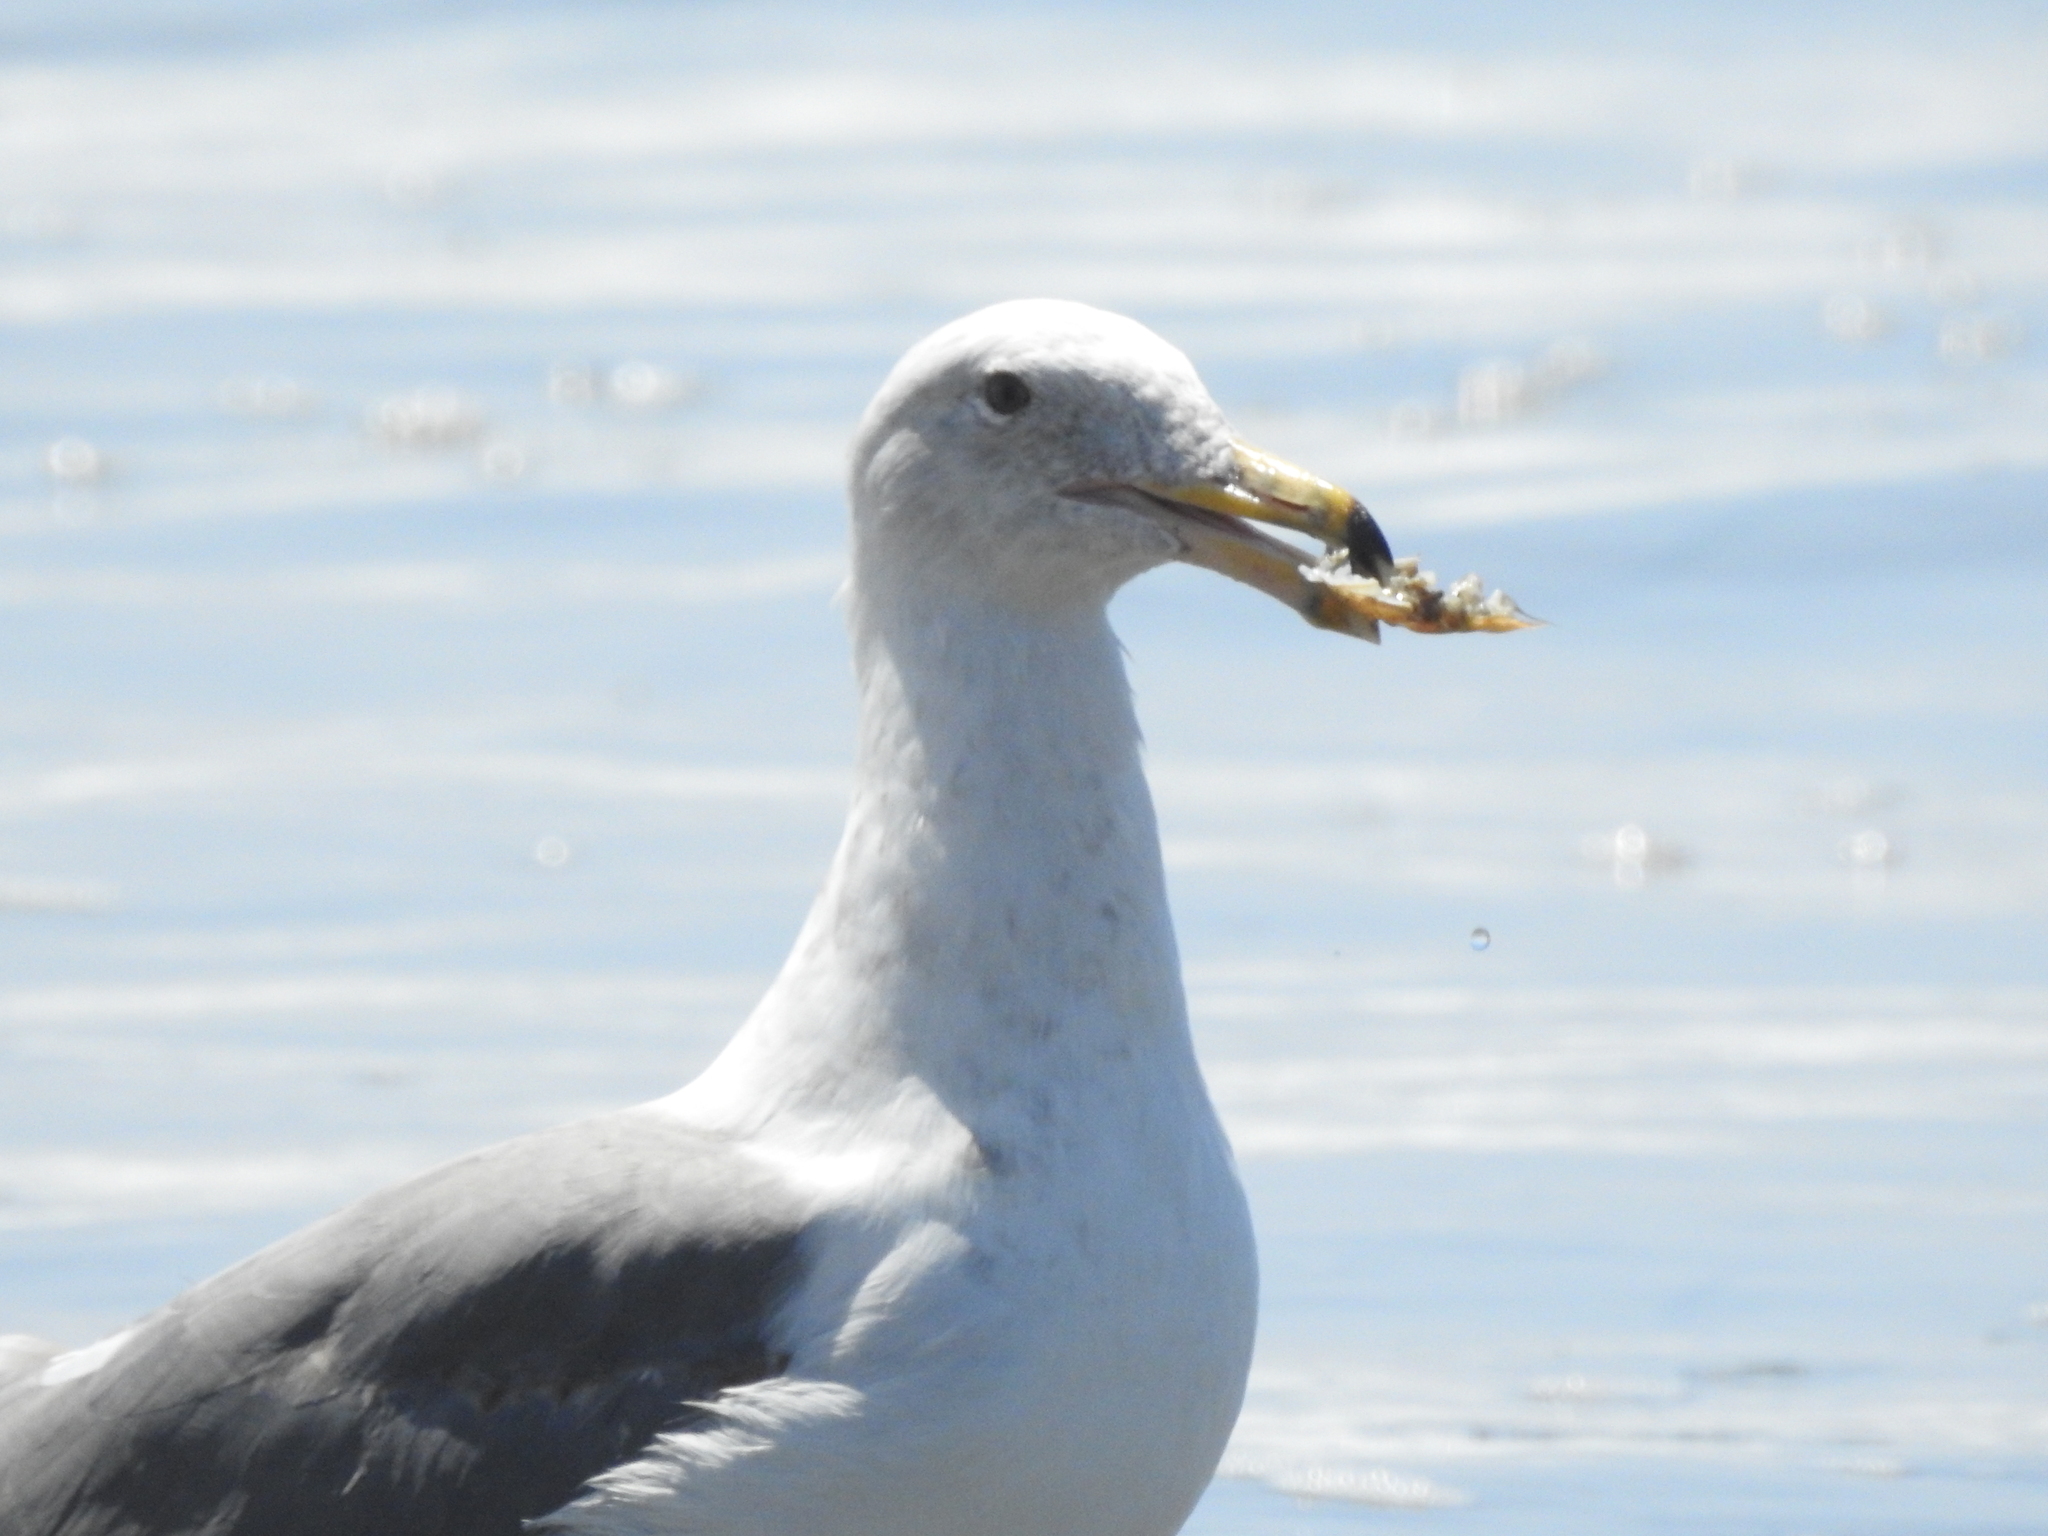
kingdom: Animalia
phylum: Chordata
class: Aves
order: Charadriiformes
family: Laridae
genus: Larus
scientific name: Larus occidentalis
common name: Western gull
